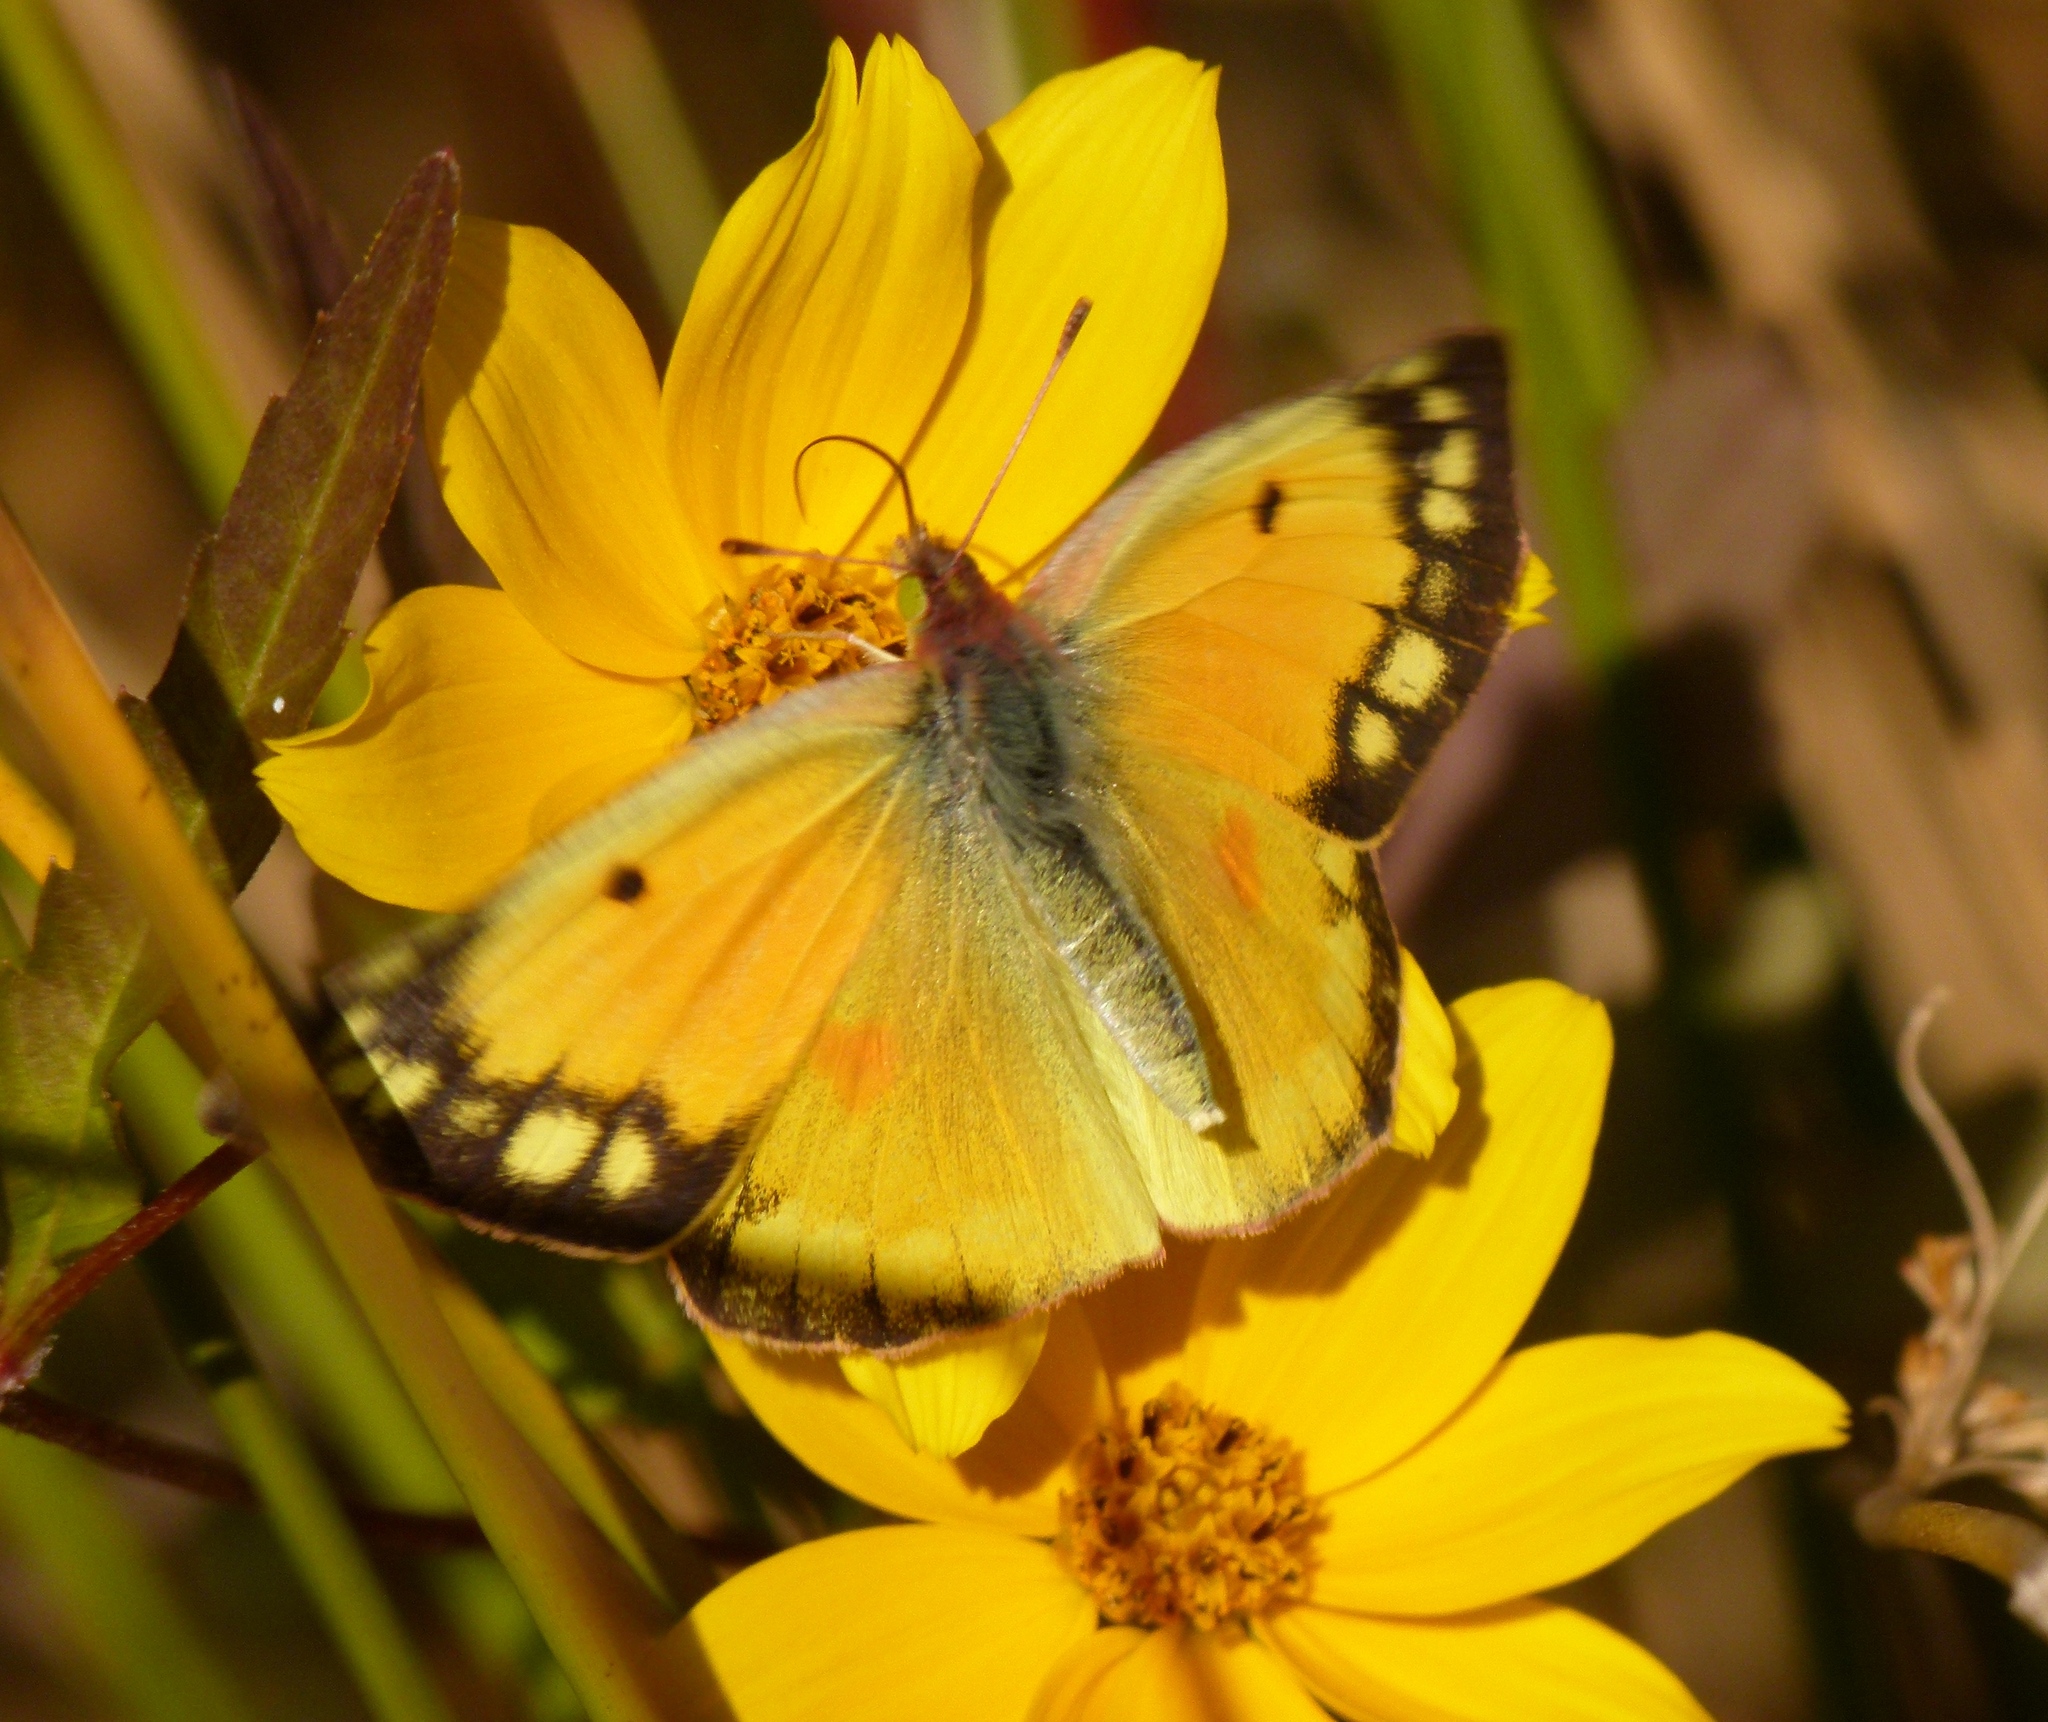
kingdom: Animalia
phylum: Arthropoda
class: Insecta
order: Lepidoptera
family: Pieridae
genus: Colias
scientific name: Colias eurytheme
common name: Alfalfa butterfly
